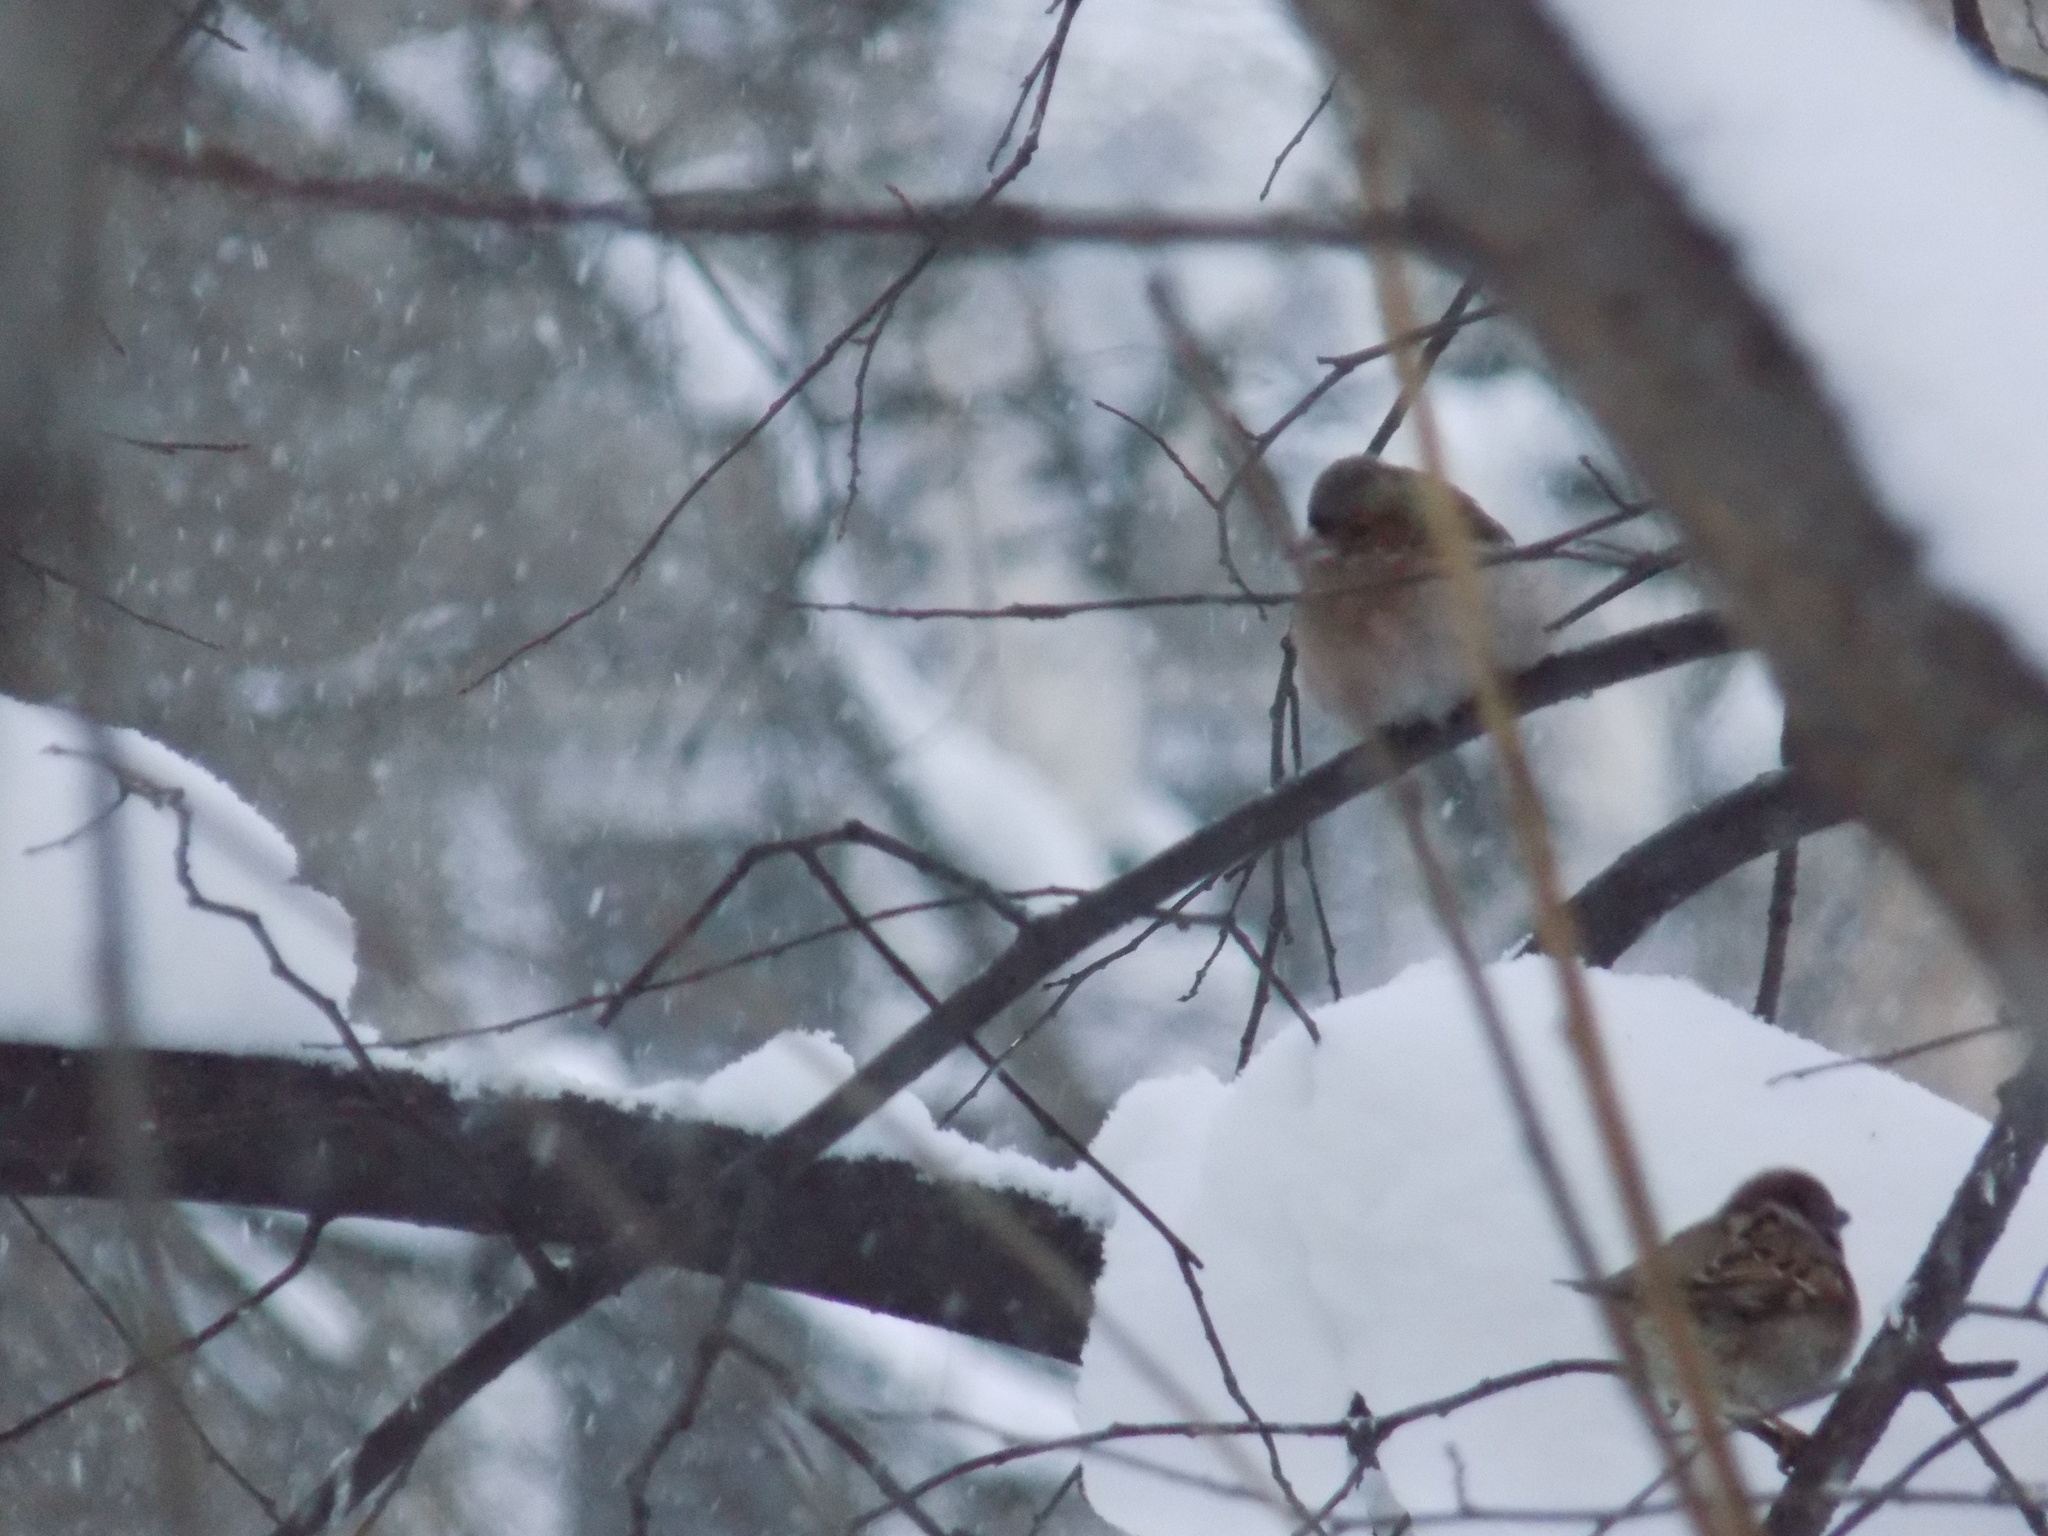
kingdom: Animalia
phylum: Chordata
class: Aves
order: Passeriformes
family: Fringillidae
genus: Fringilla
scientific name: Fringilla coelebs
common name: Common chaffinch
